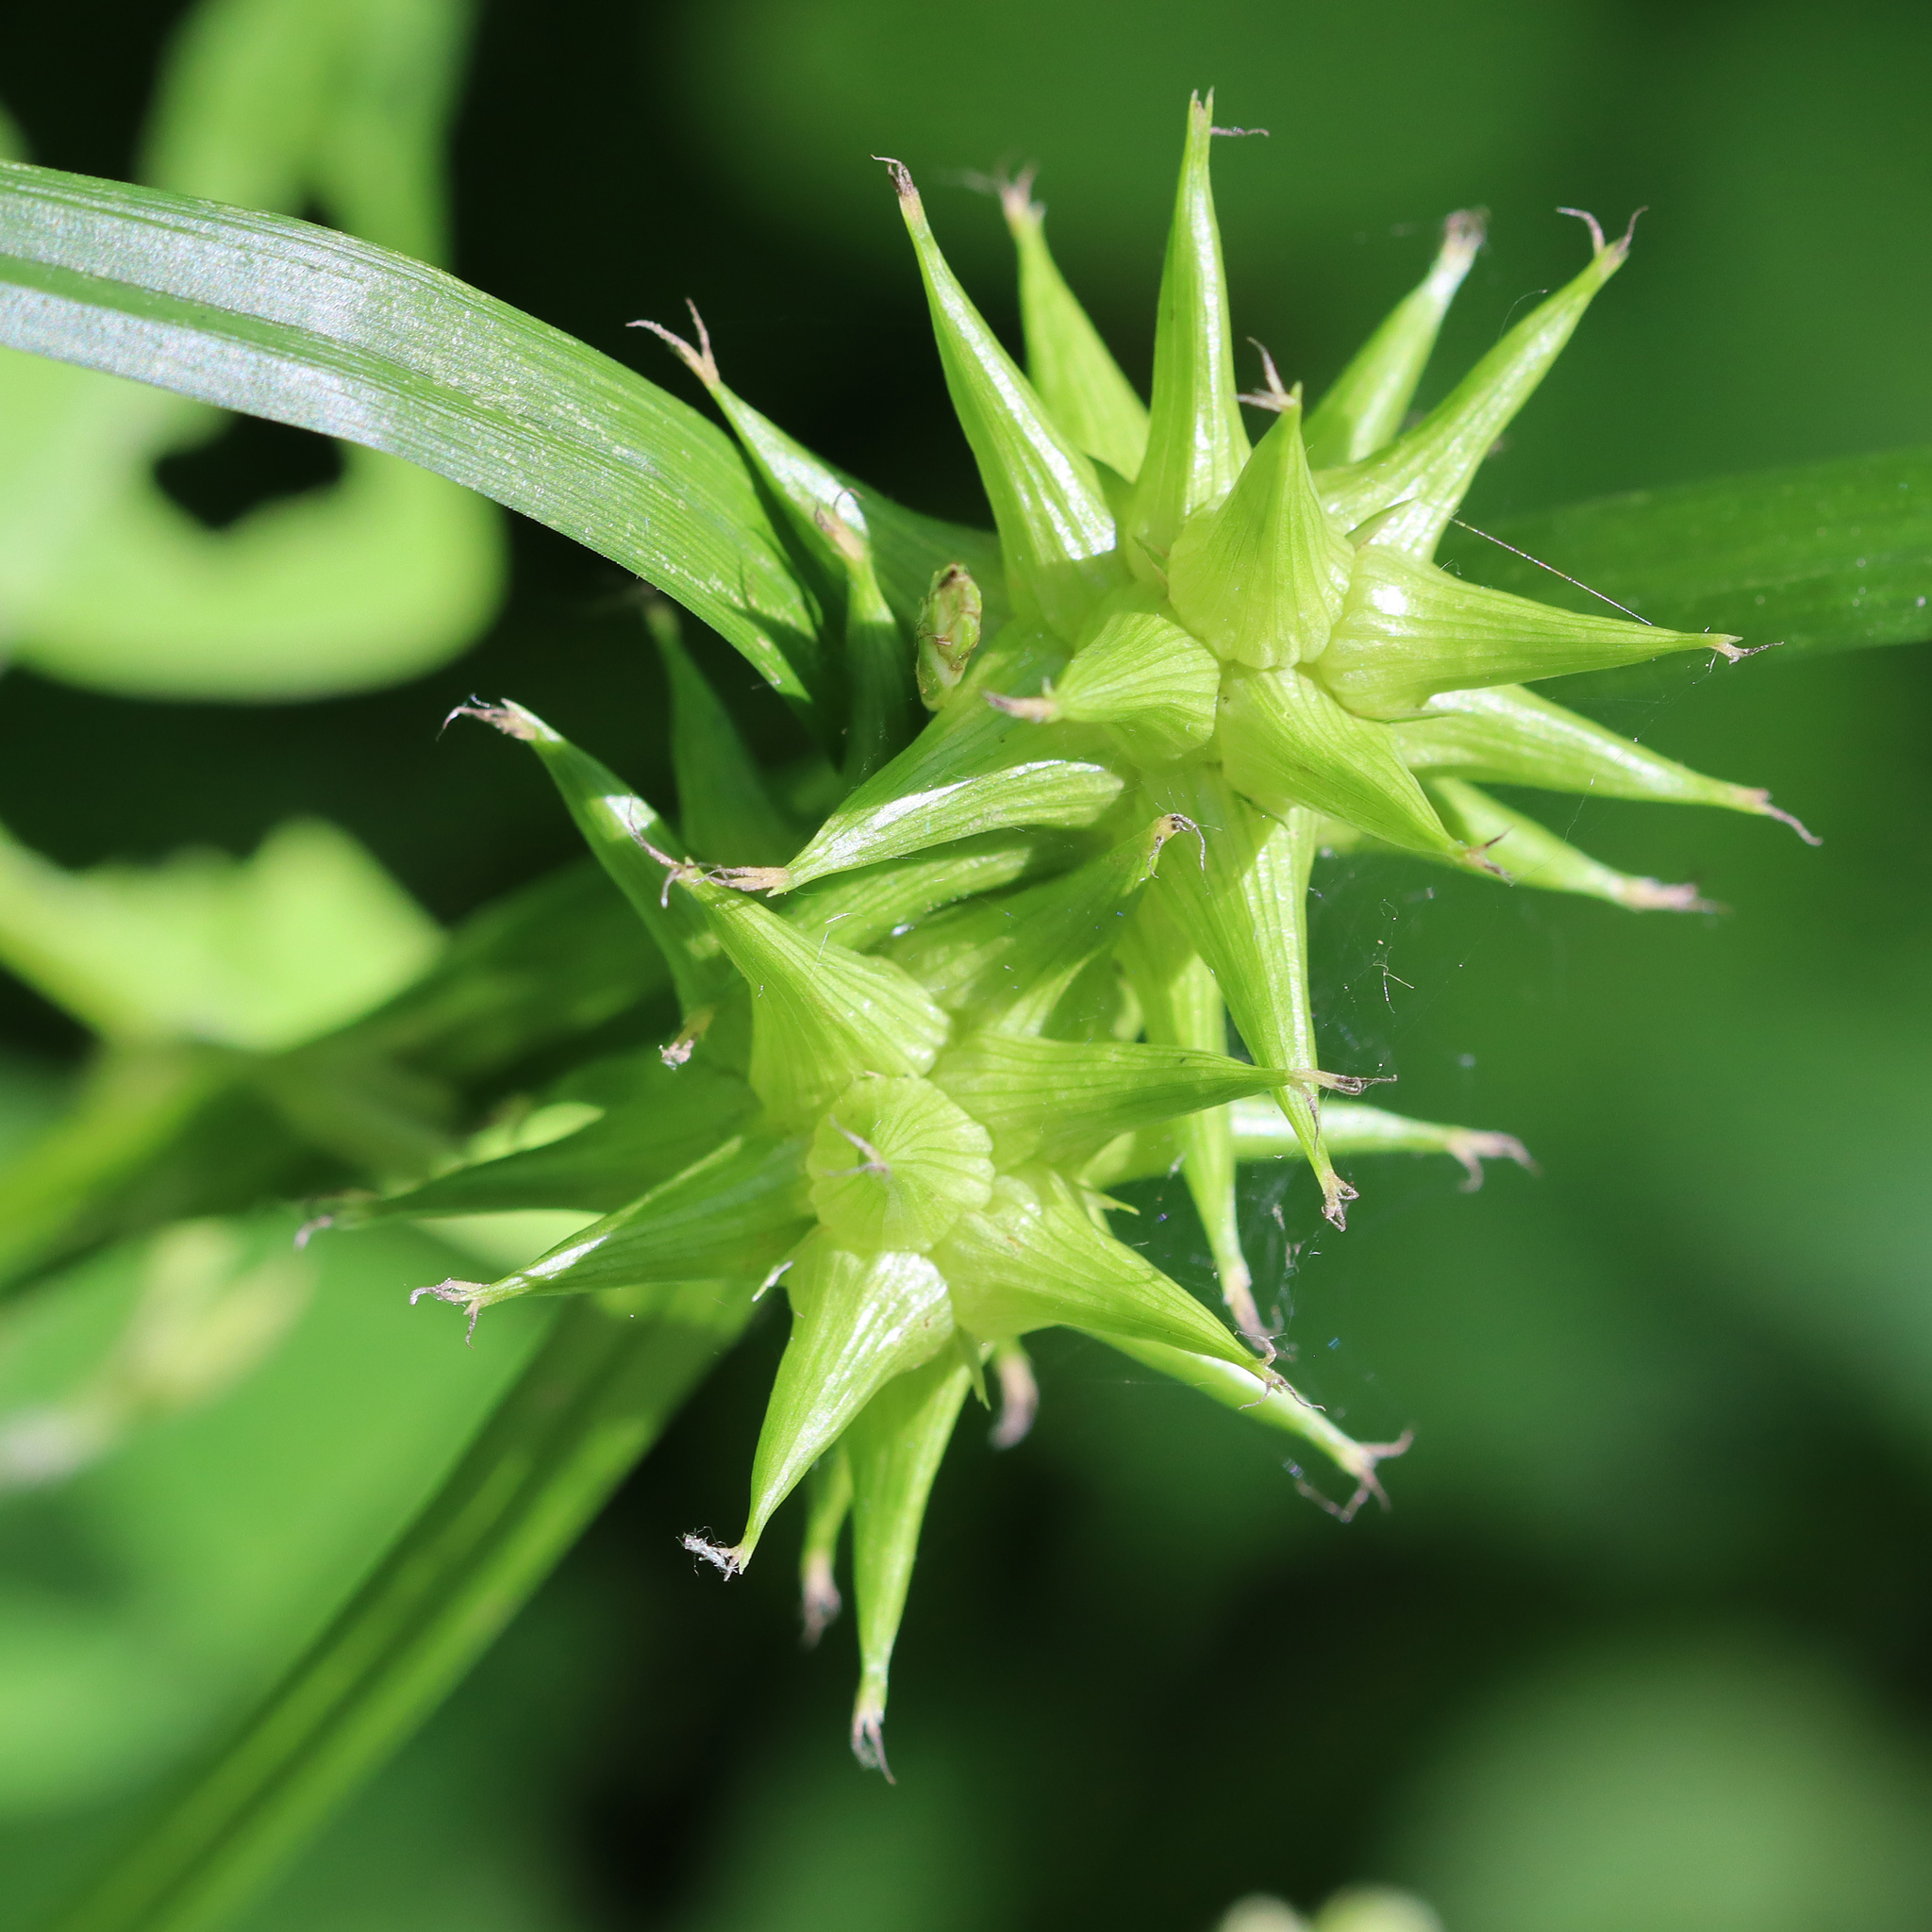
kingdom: Plantae
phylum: Tracheophyta
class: Liliopsida
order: Poales
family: Cyperaceae
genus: Carex
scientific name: Carex grayi
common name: Asa gray's sedge
